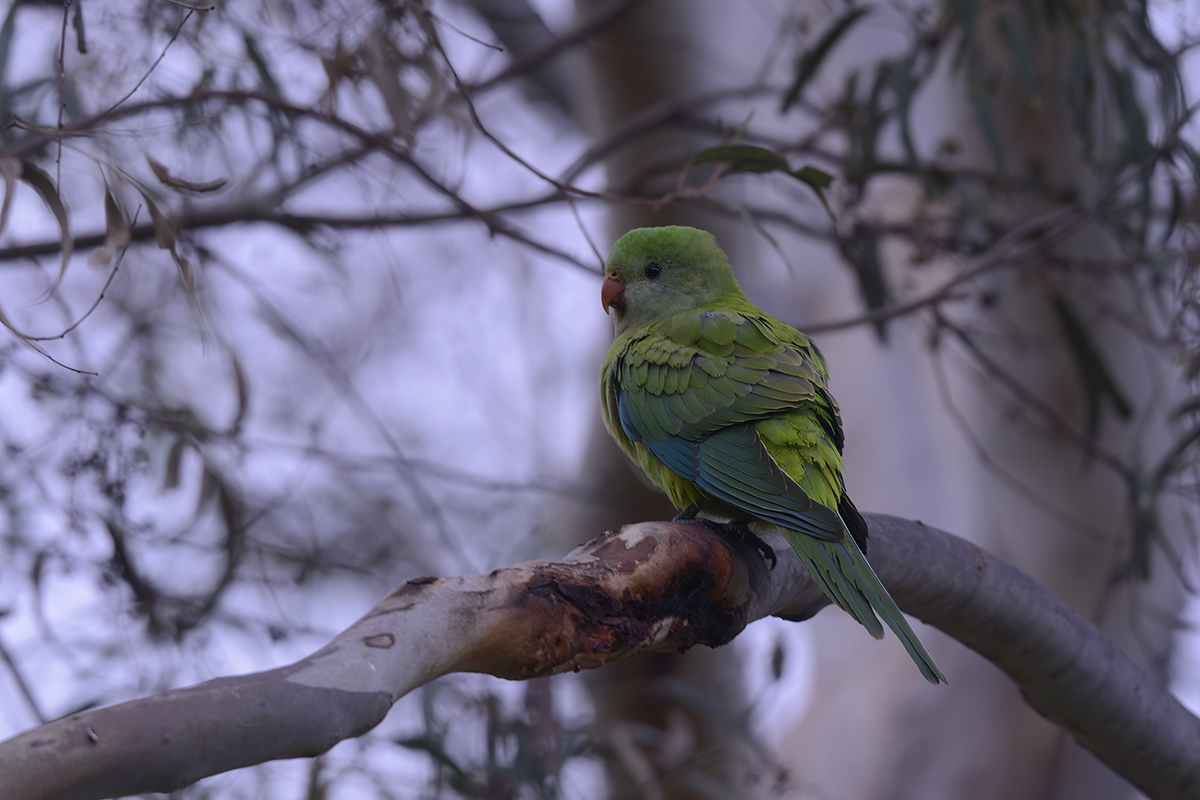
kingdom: Animalia
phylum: Chordata
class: Aves
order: Psittaciformes
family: Psittacidae
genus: Polytelis
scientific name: Polytelis swainsonii
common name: Superb parrot
